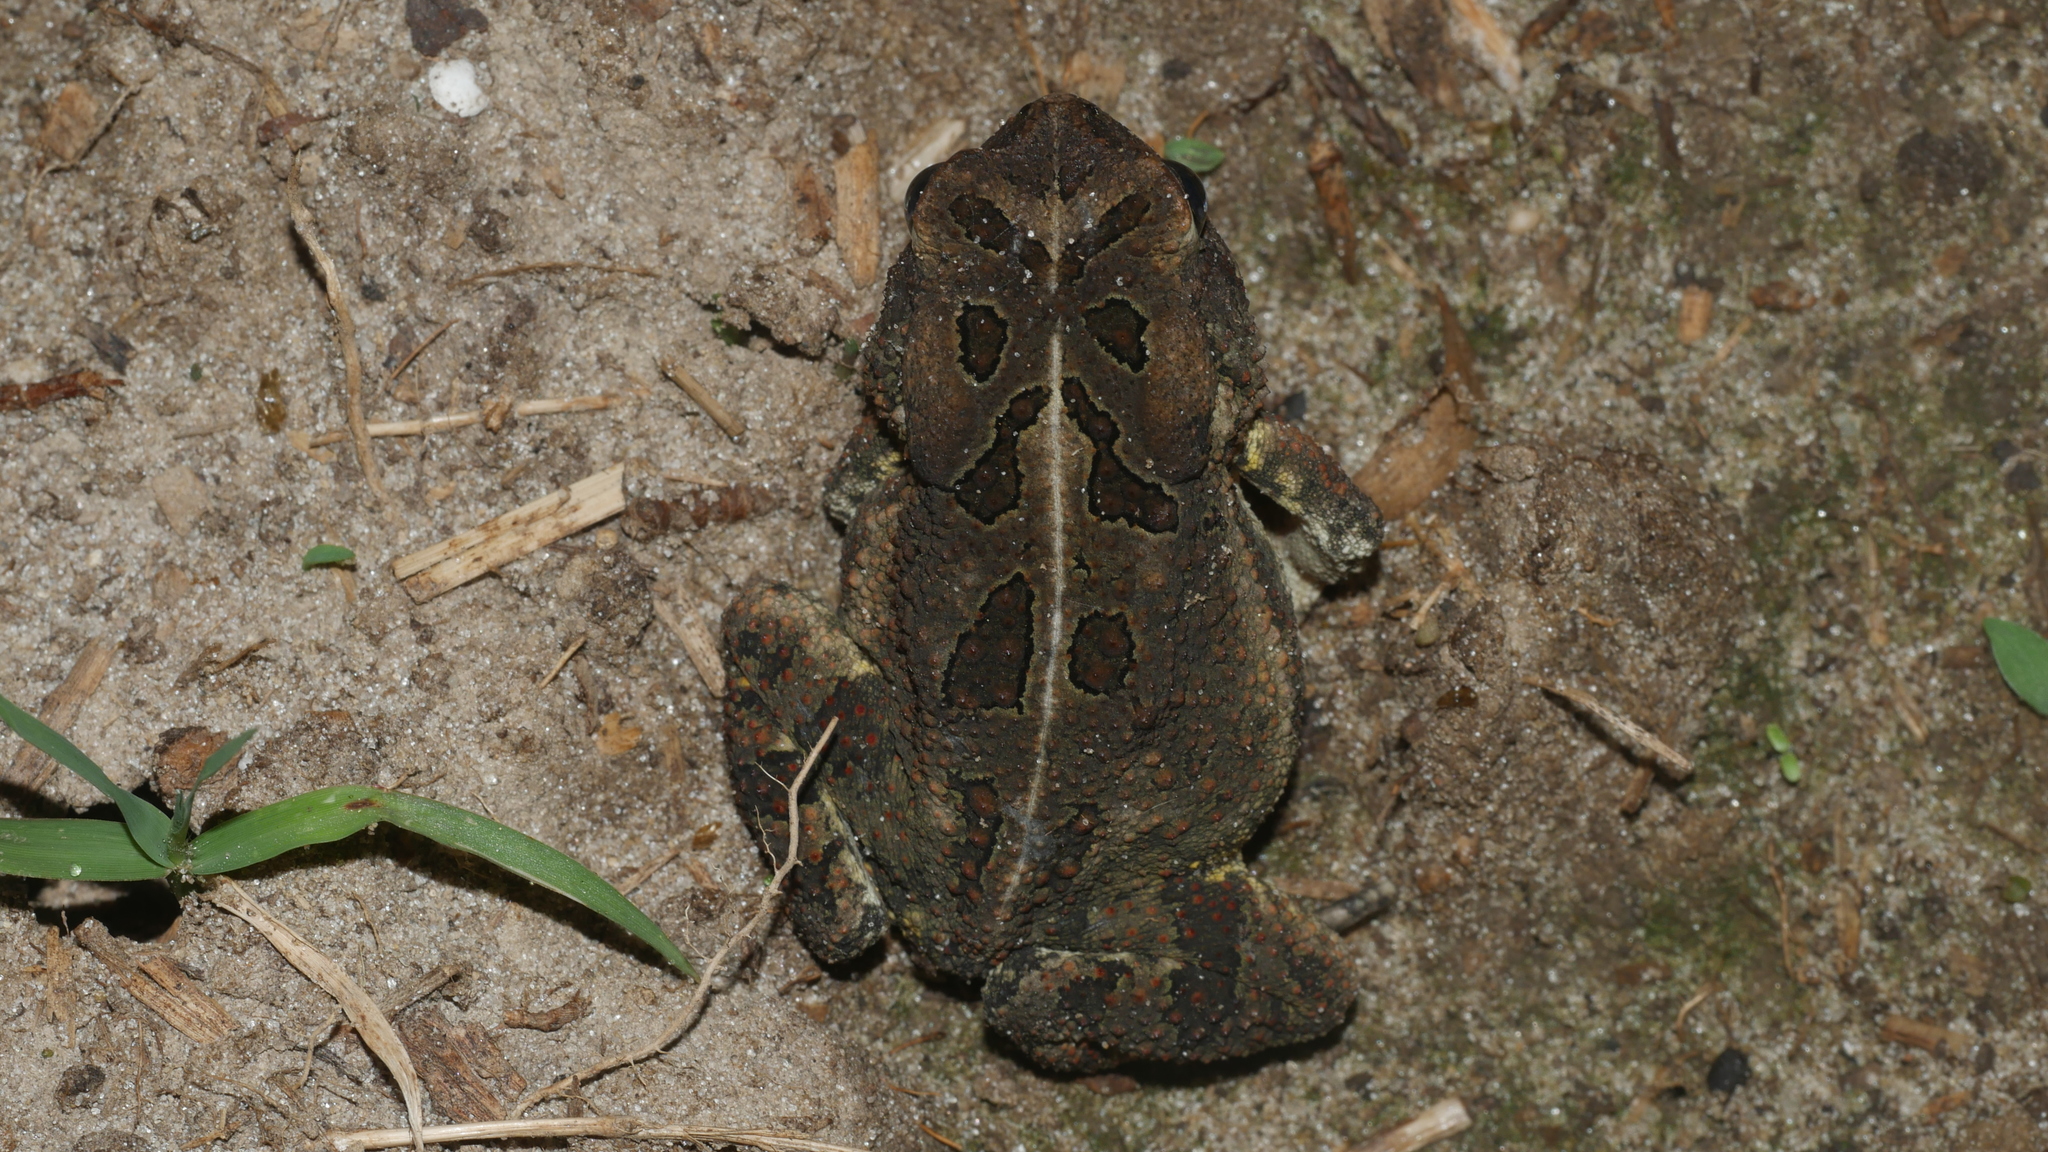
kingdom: Animalia
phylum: Chordata
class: Amphibia
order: Anura
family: Bufonidae
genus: Anaxyrus
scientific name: Anaxyrus fowleri
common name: Fowler's toad
